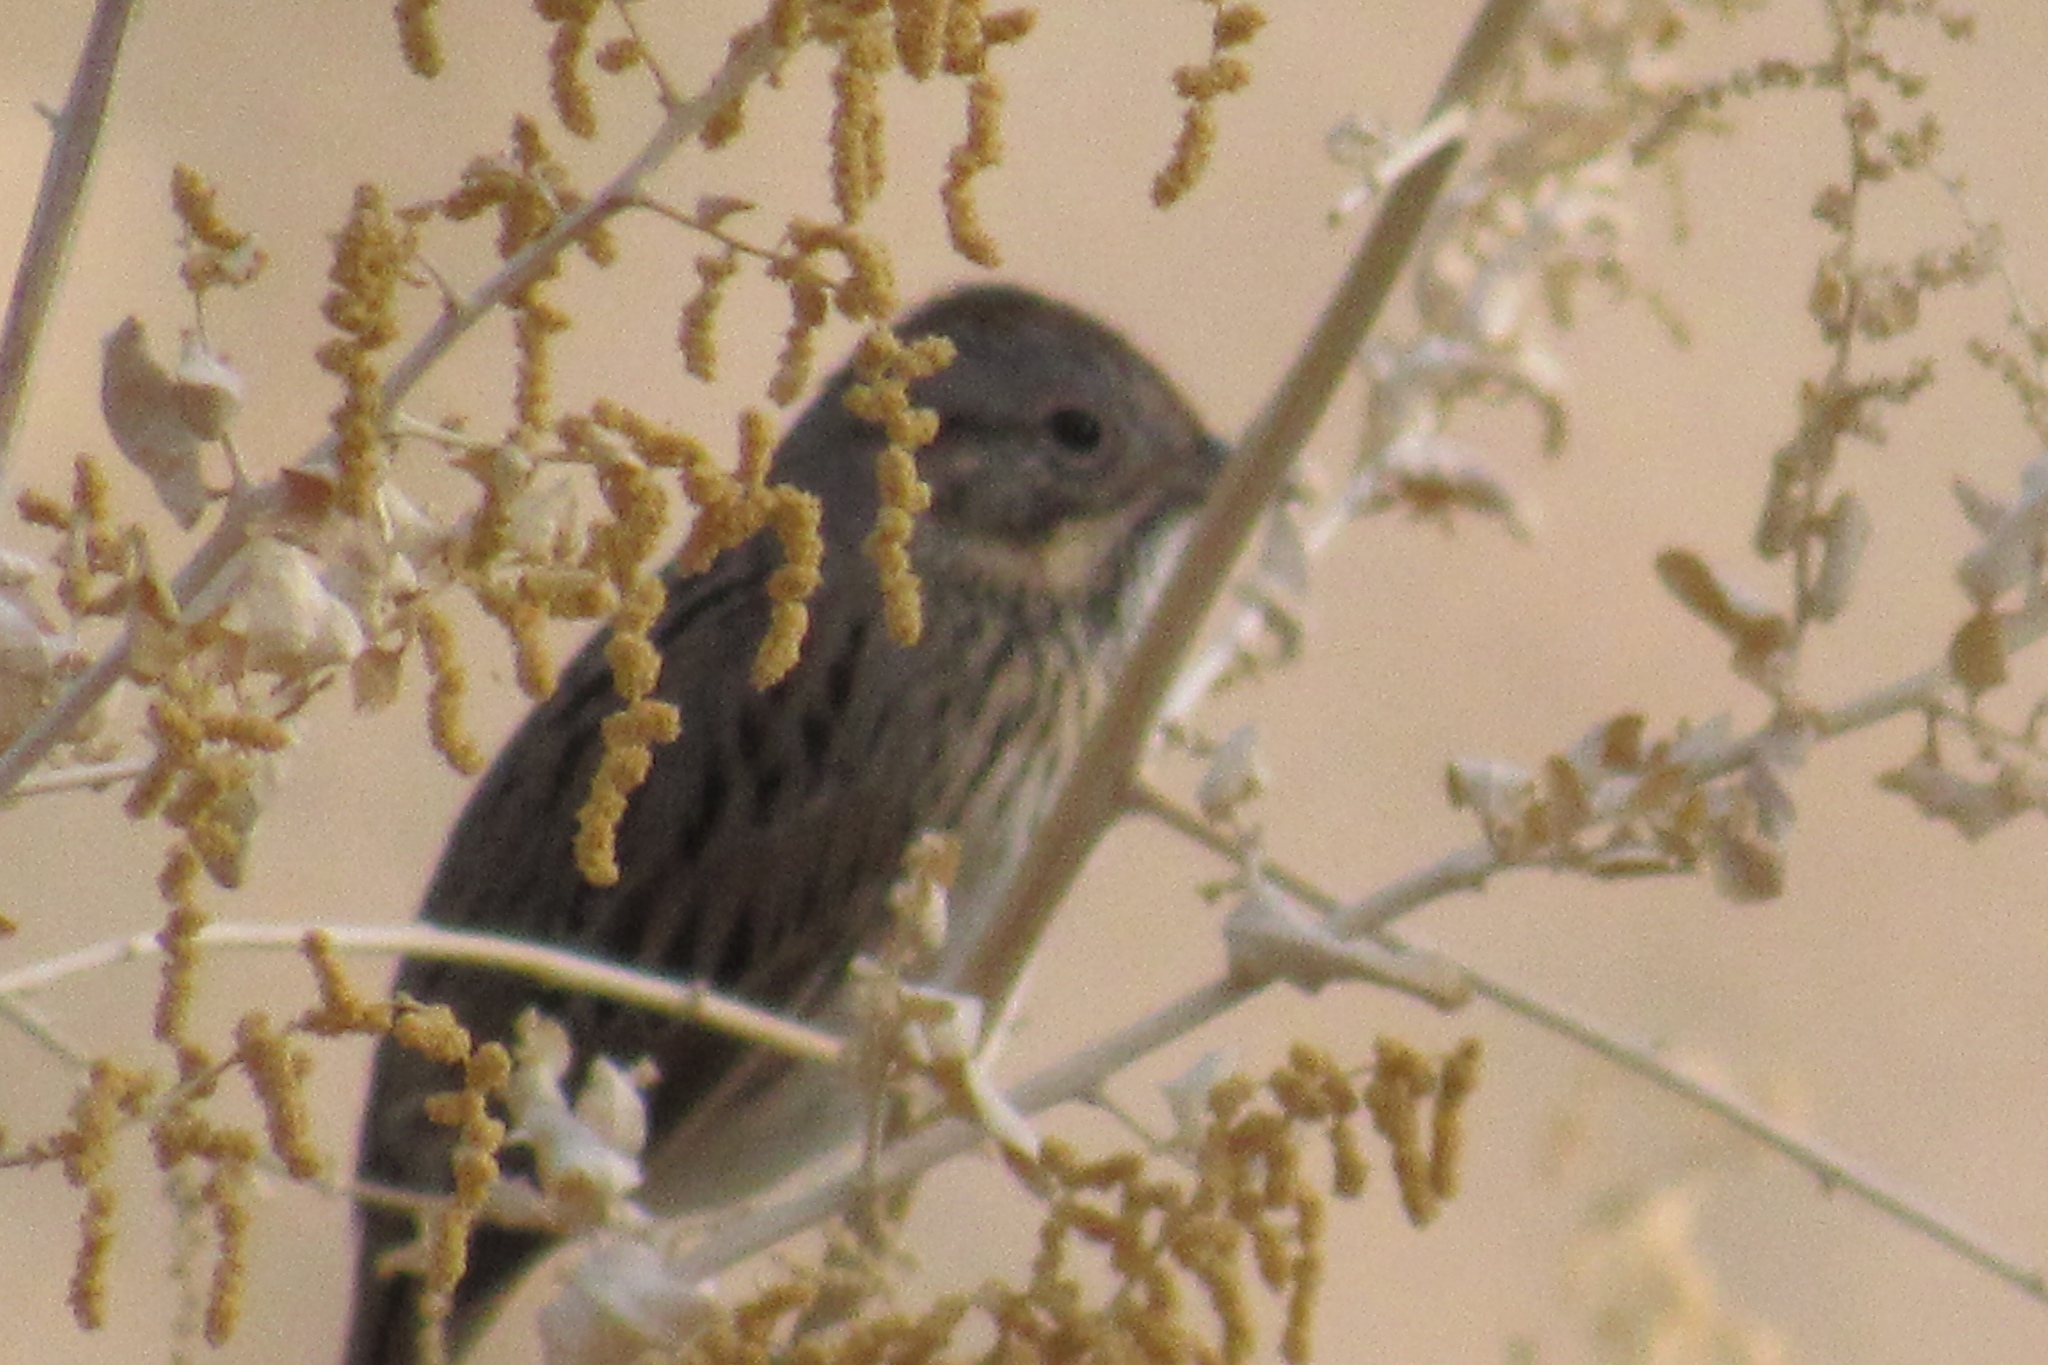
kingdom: Animalia
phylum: Chordata
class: Aves
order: Passeriformes
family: Passerellidae
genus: Melospiza
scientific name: Melospiza lincolnii
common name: Lincoln's sparrow
